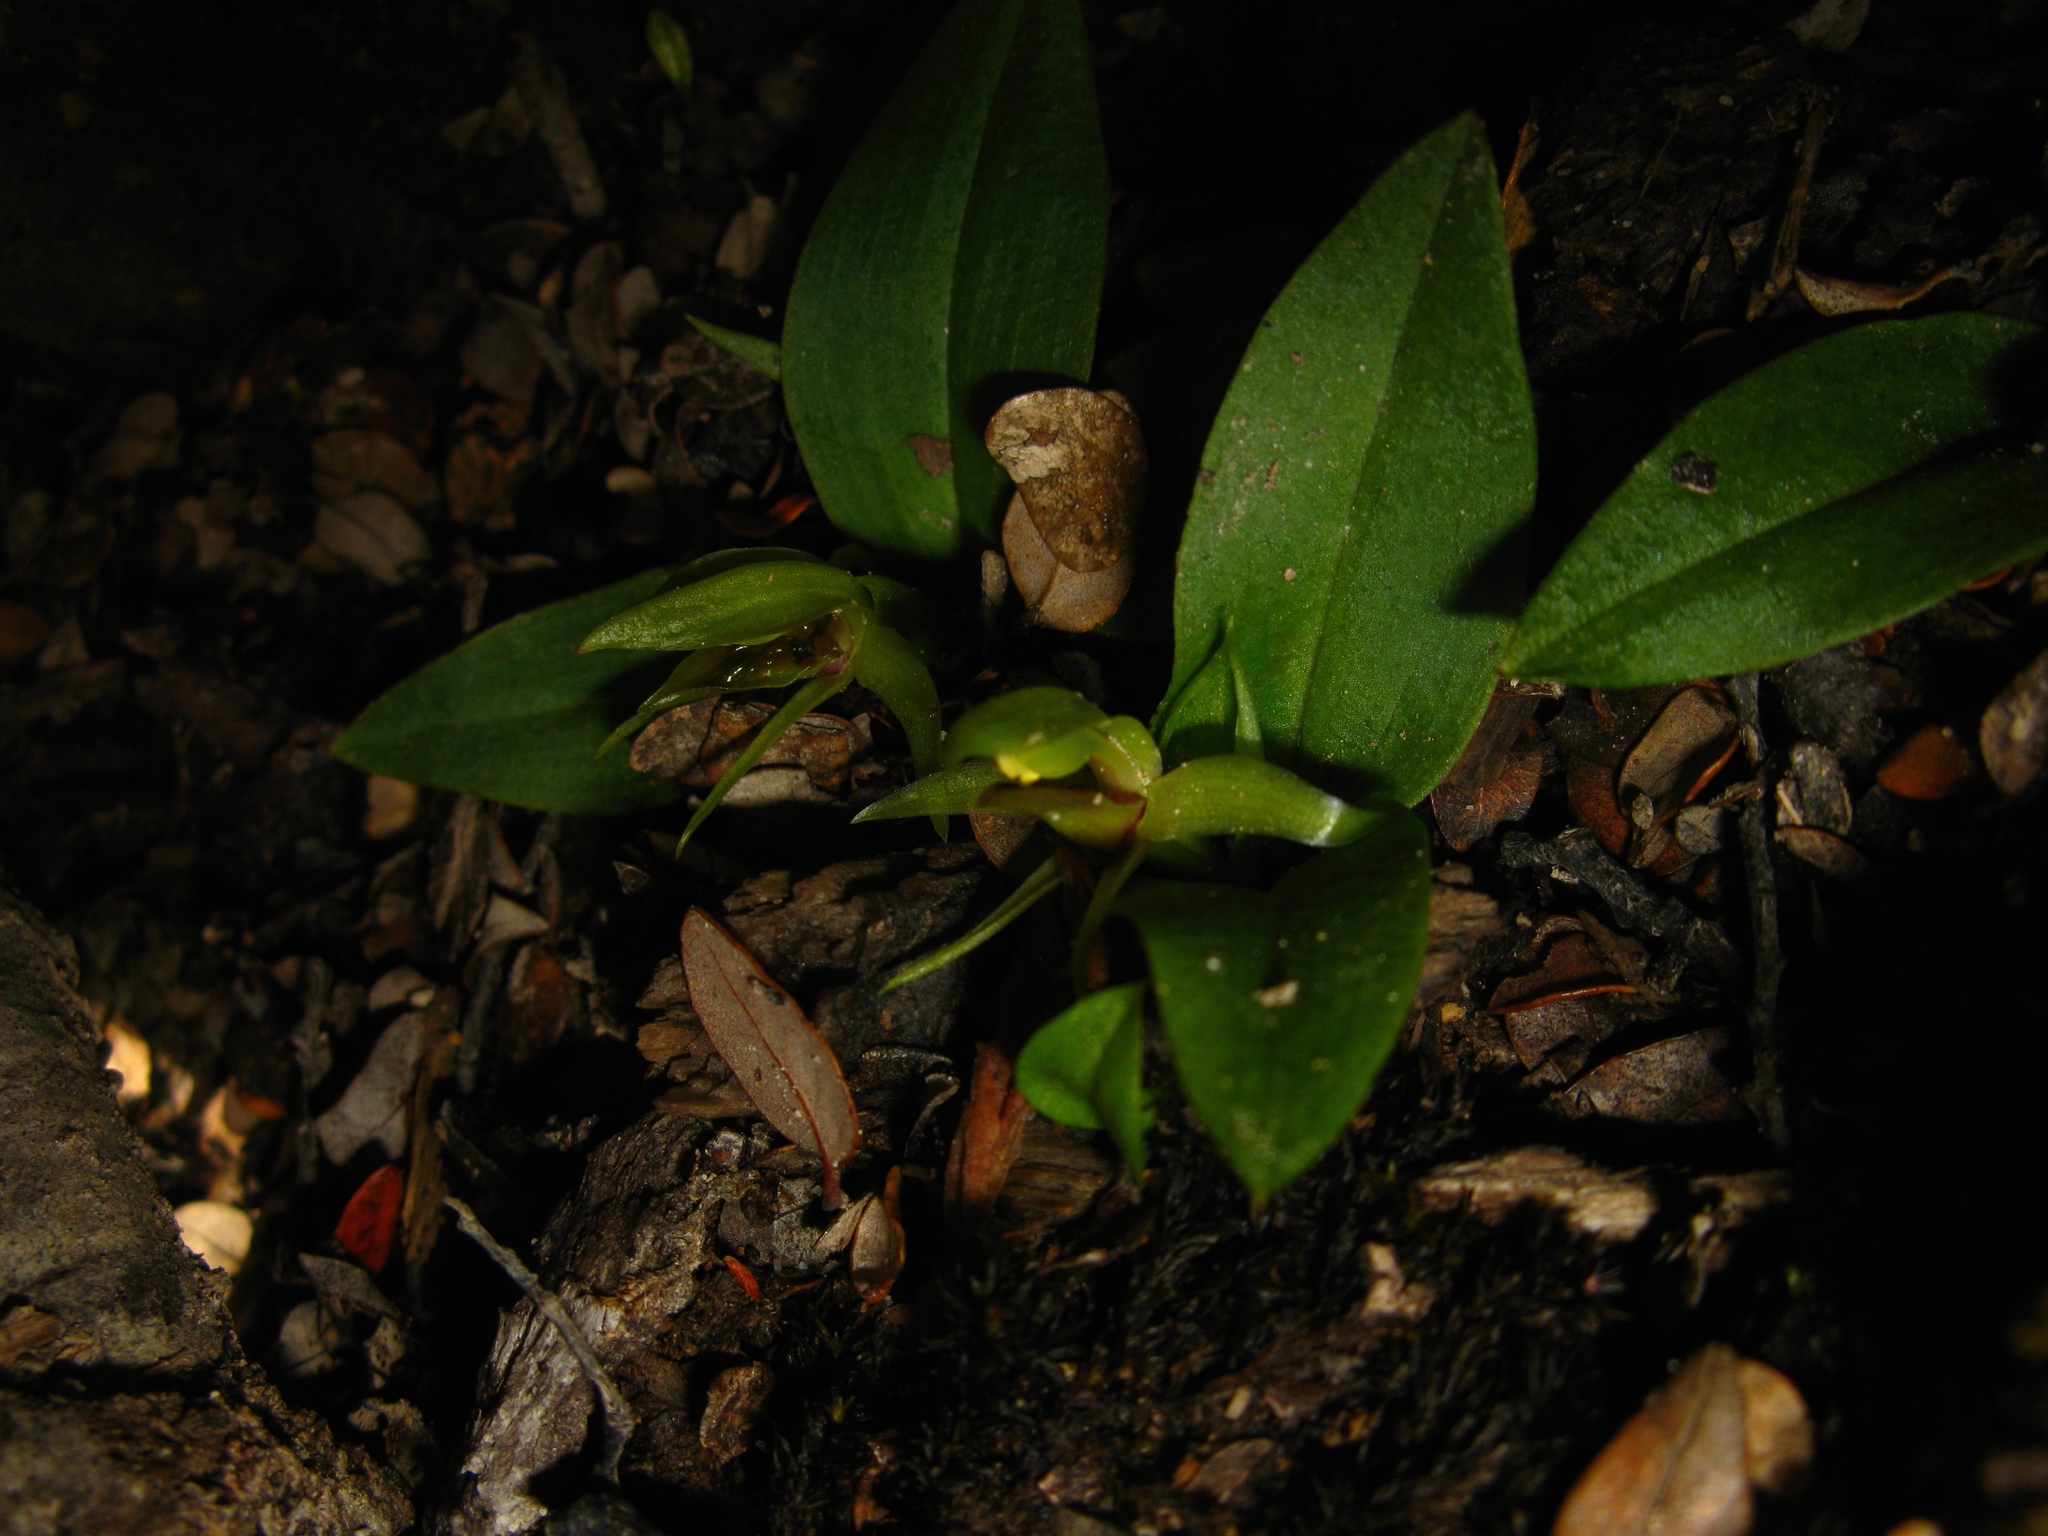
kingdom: Plantae
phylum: Tracheophyta
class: Liliopsida
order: Asparagales
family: Orchidaceae
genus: Chiloglottis
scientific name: Chiloglottis cornuta
